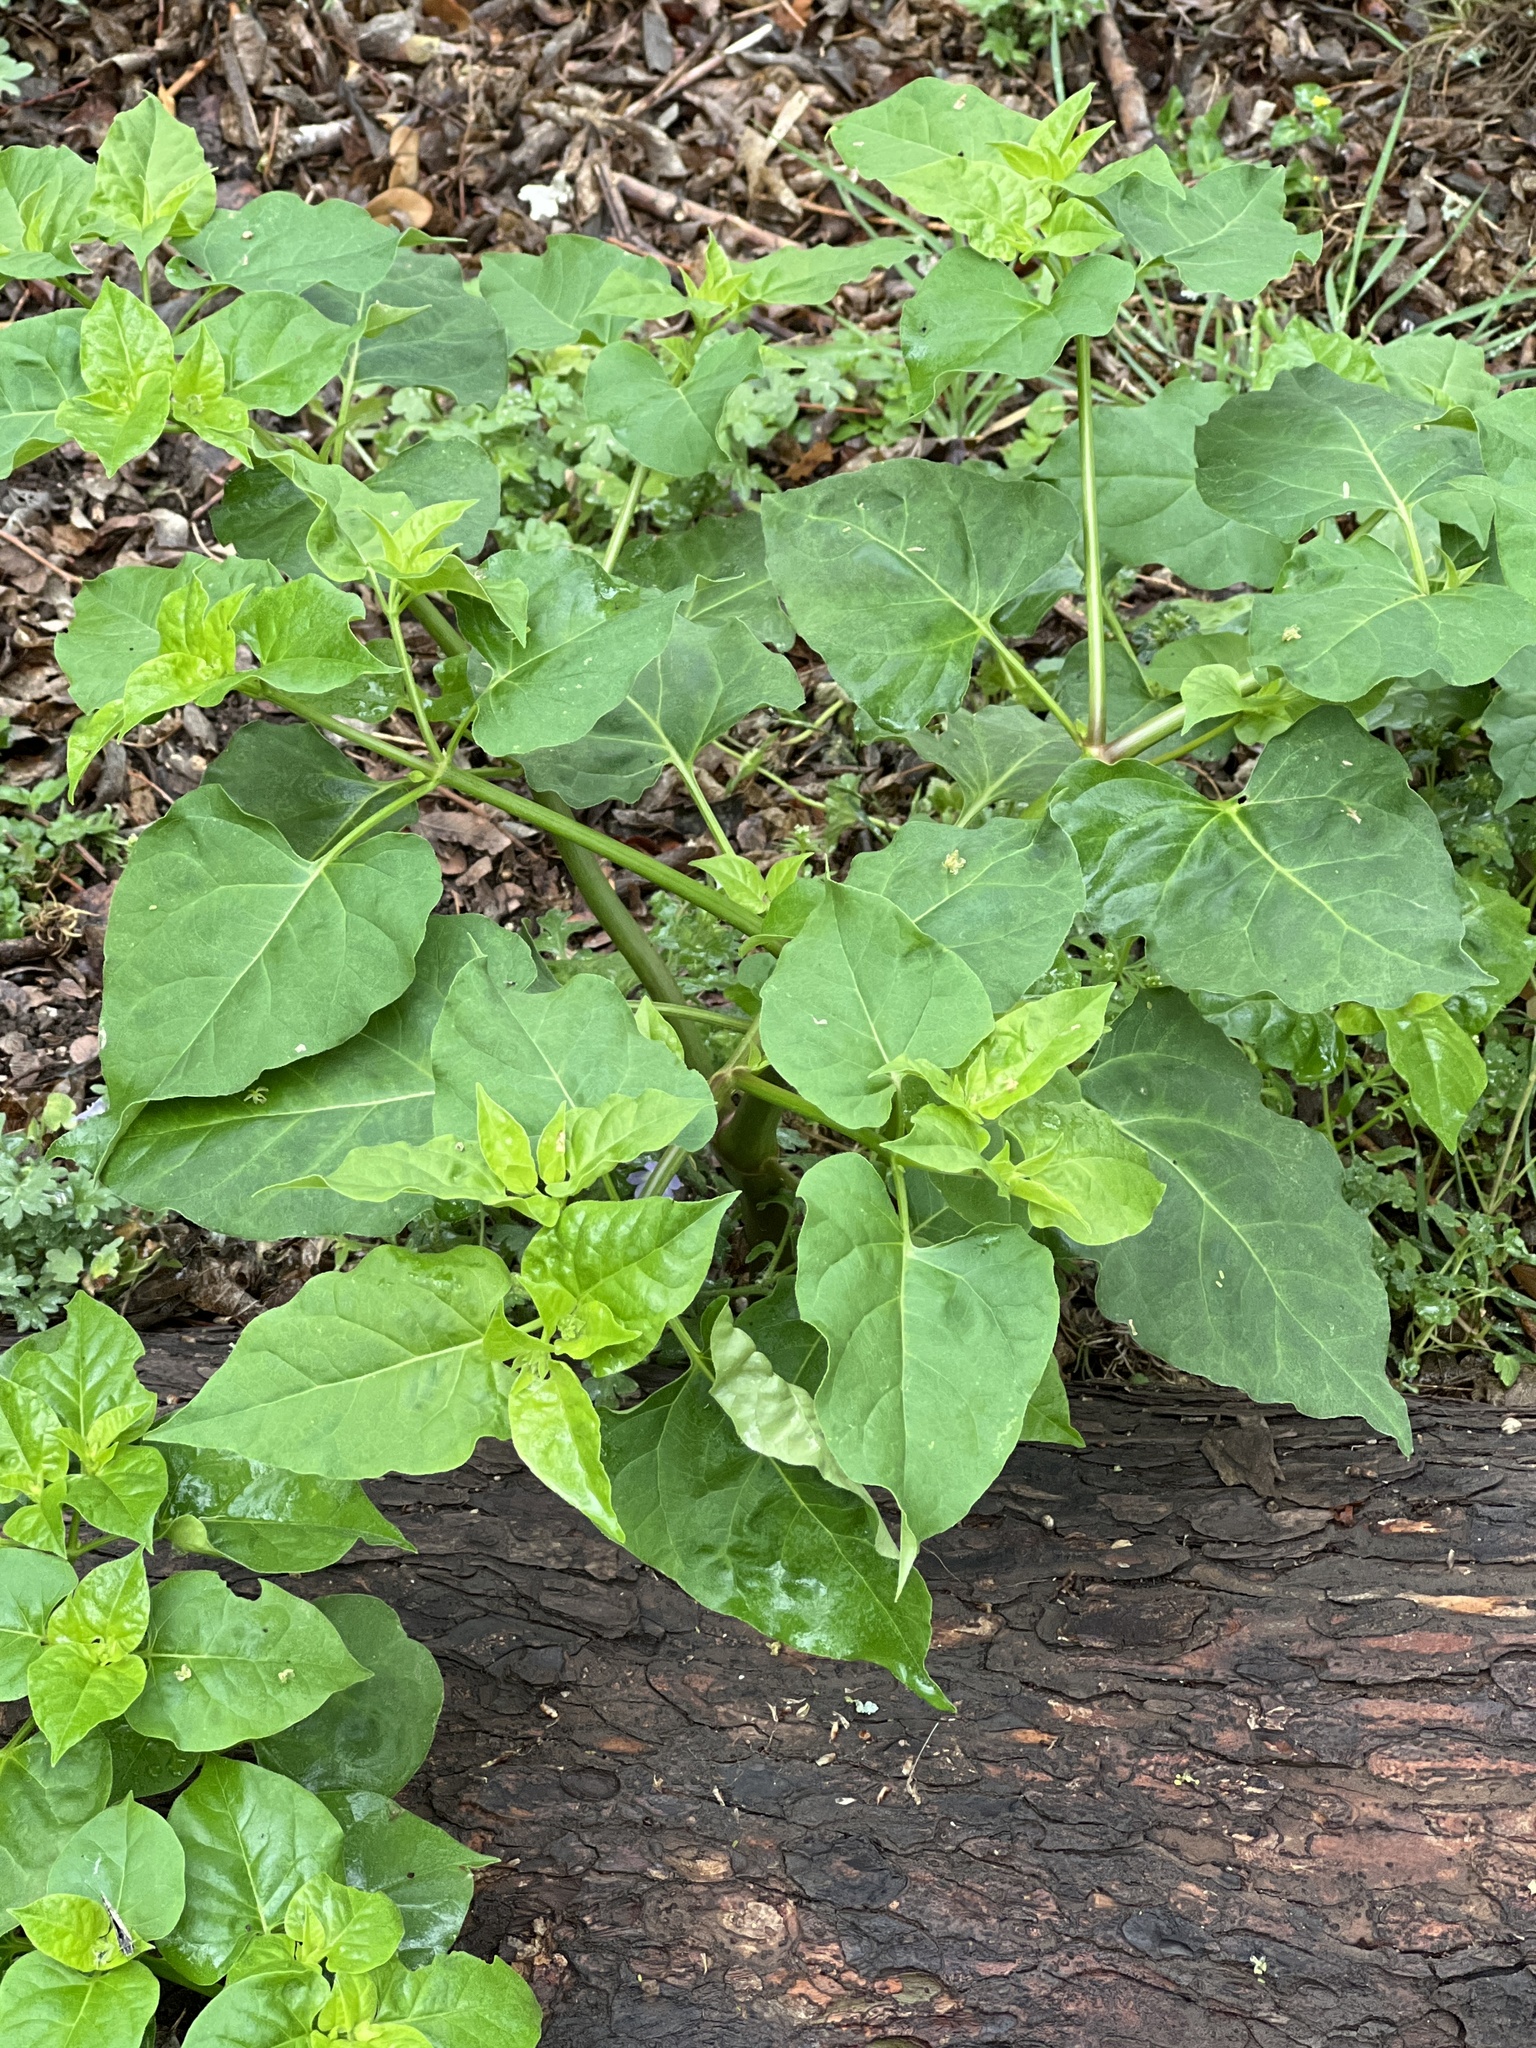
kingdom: Plantae
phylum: Tracheophyta
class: Magnoliopsida
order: Caryophyllales
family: Nyctaginaceae
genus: Mirabilis
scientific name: Mirabilis jalapa
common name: Marvel-of-peru
